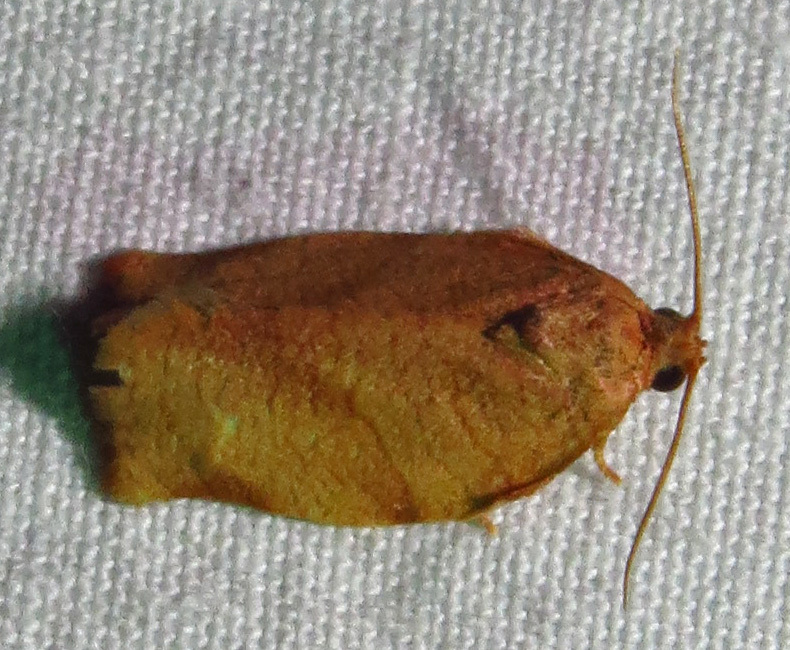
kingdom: Animalia
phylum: Arthropoda
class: Insecta
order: Lepidoptera
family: Tortricidae
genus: Choristoneura
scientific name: Choristoneura rosaceana
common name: Oblique-banded leafroller moth
